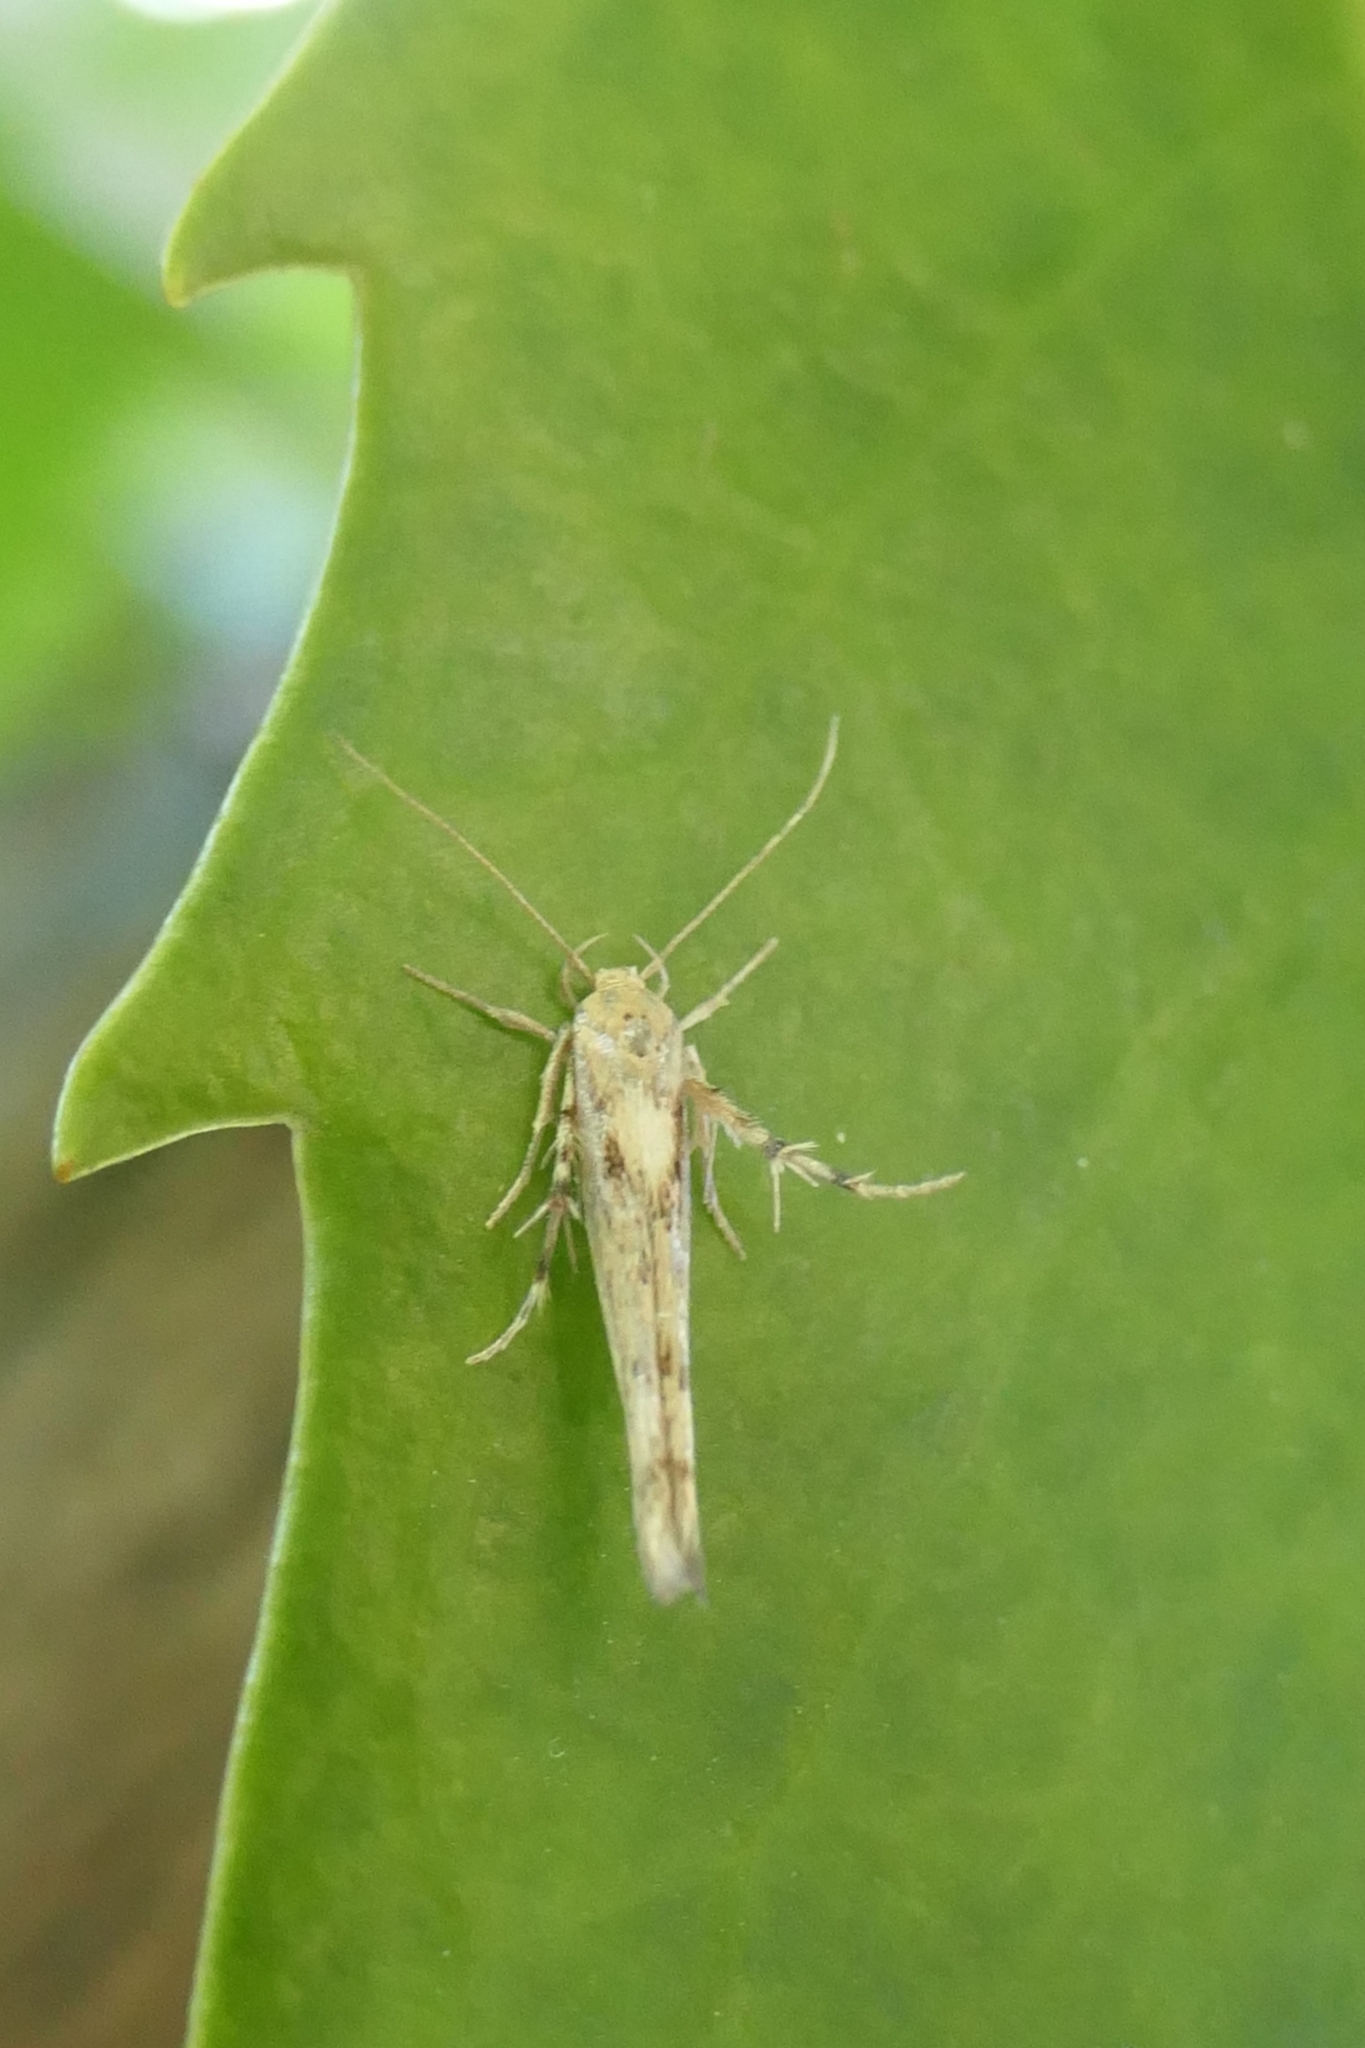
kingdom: Animalia
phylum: Arthropoda
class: Insecta
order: Lepidoptera
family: Stathmopodidae
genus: Stathmopoda
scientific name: Stathmopoda plumbiflua
